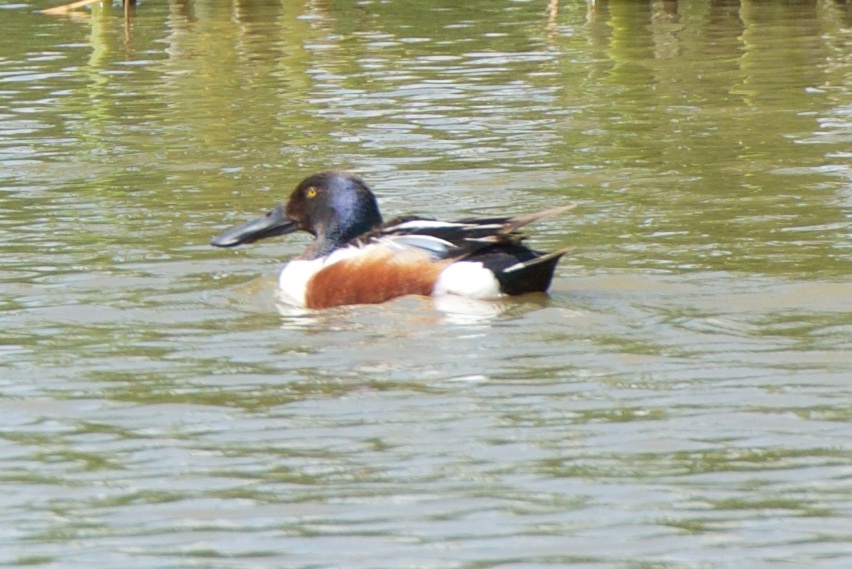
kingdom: Animalia
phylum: Chordata
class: Aves
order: Anseriformes
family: Anatidae
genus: Spatula
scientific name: Spatula clypeata
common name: Northern shoveler
